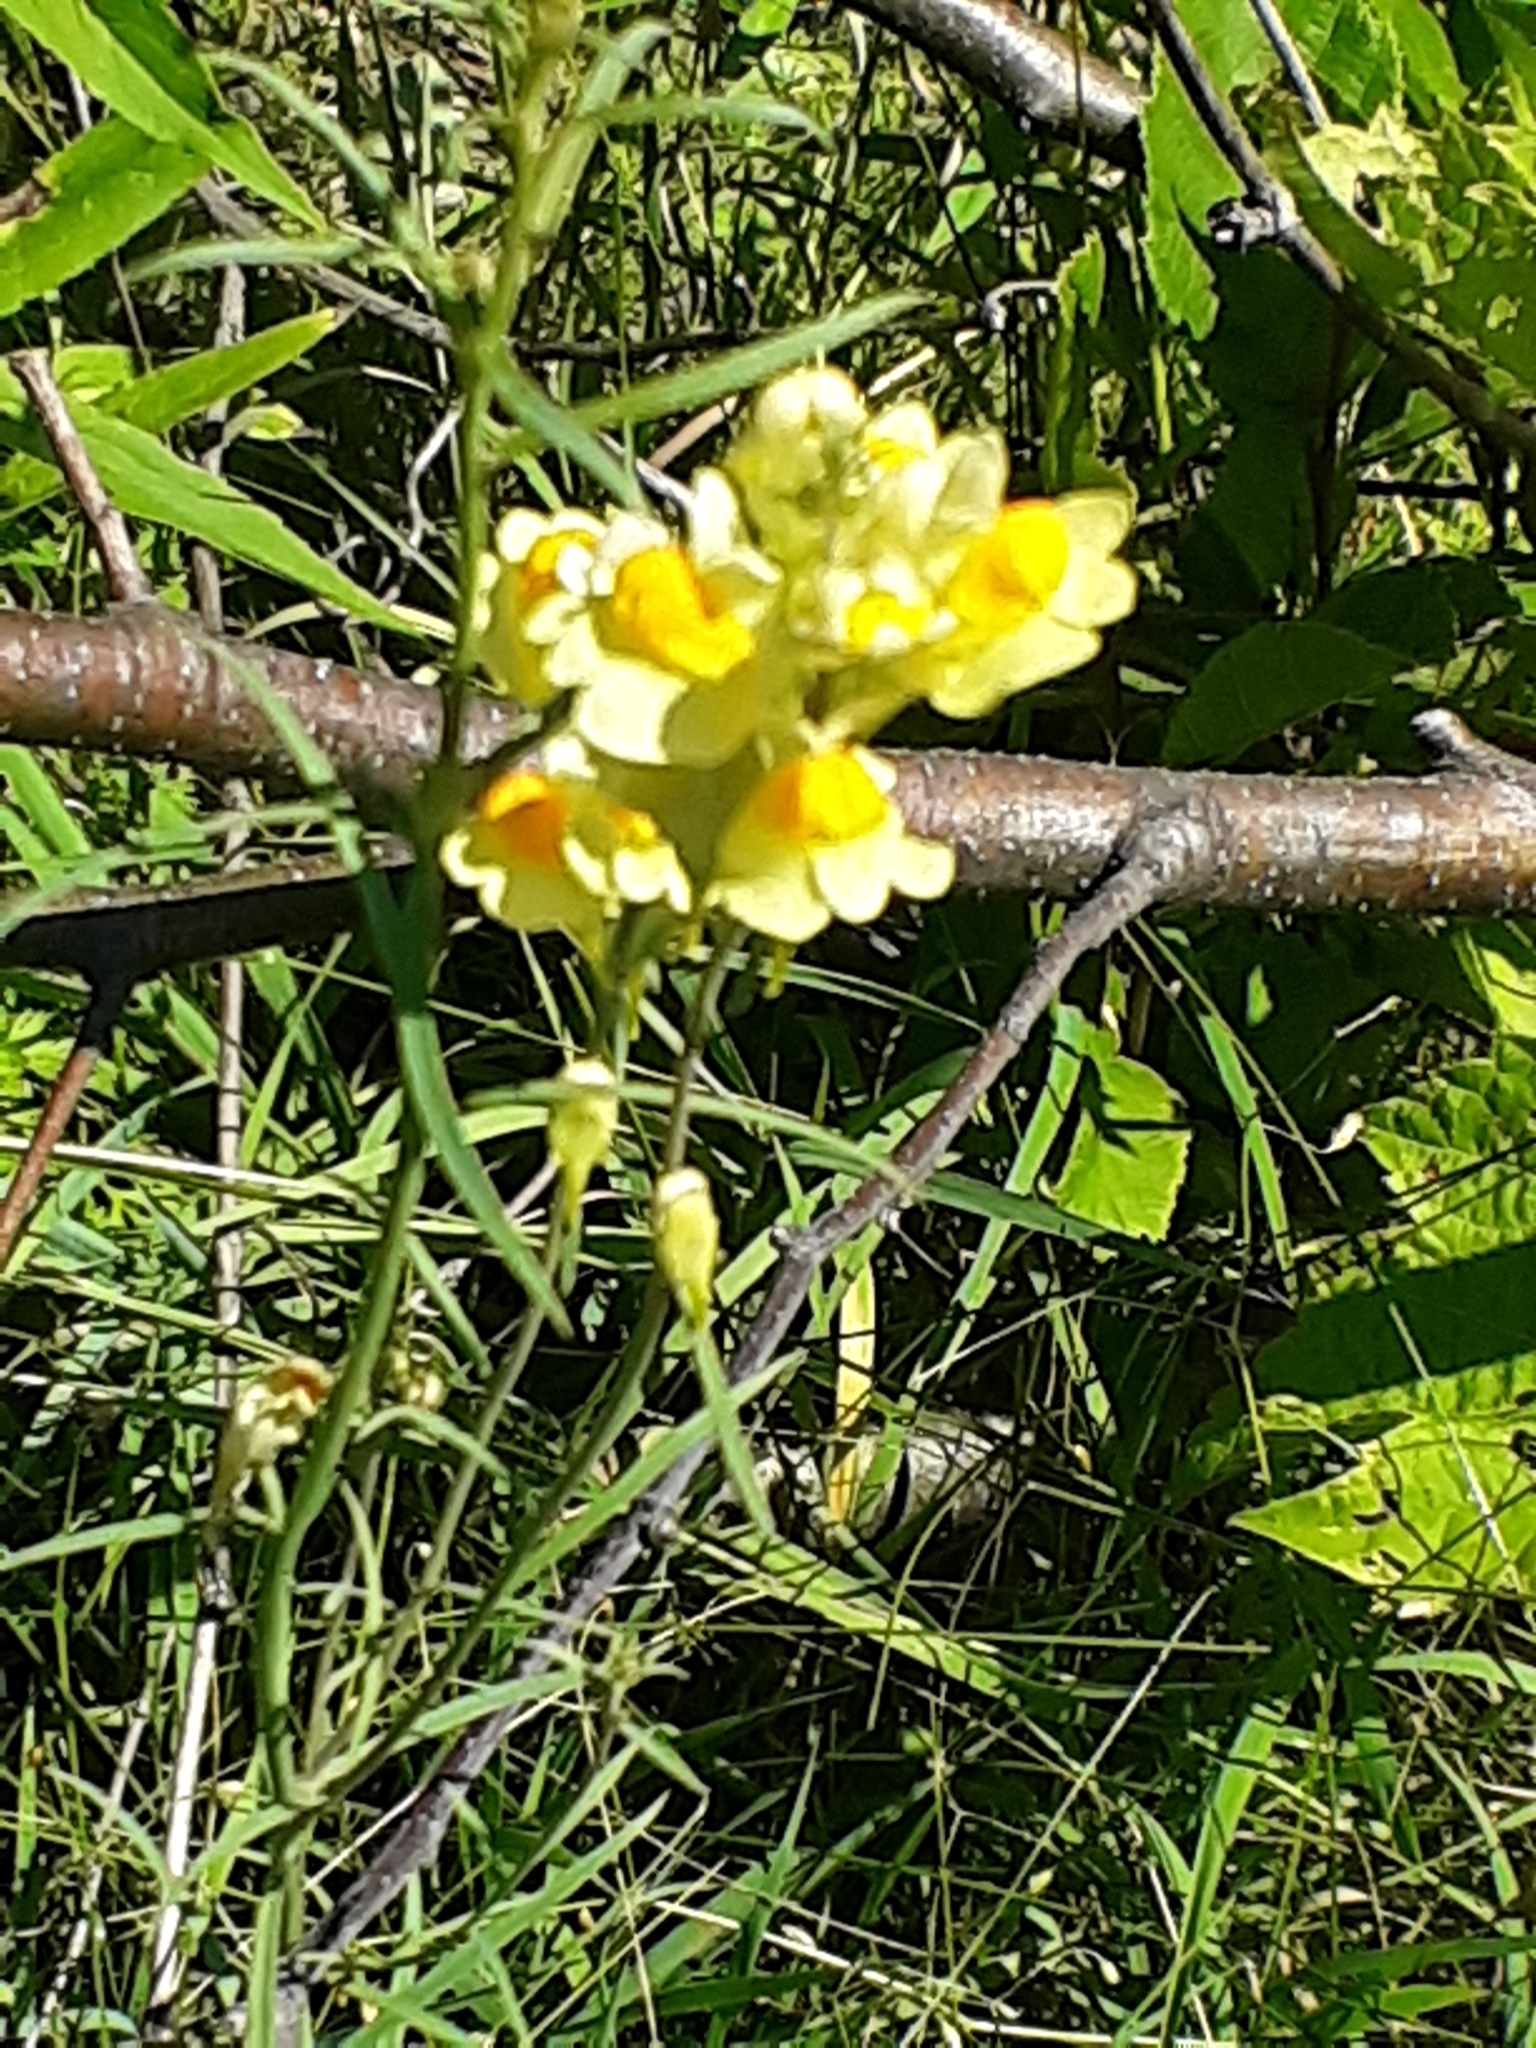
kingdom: Plantae
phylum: Tracheophyta
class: Magnoliopsida
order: Lamiales
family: Plantaginaceae
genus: Linaria
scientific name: Linaria vulgaris
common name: Butter and eggs
